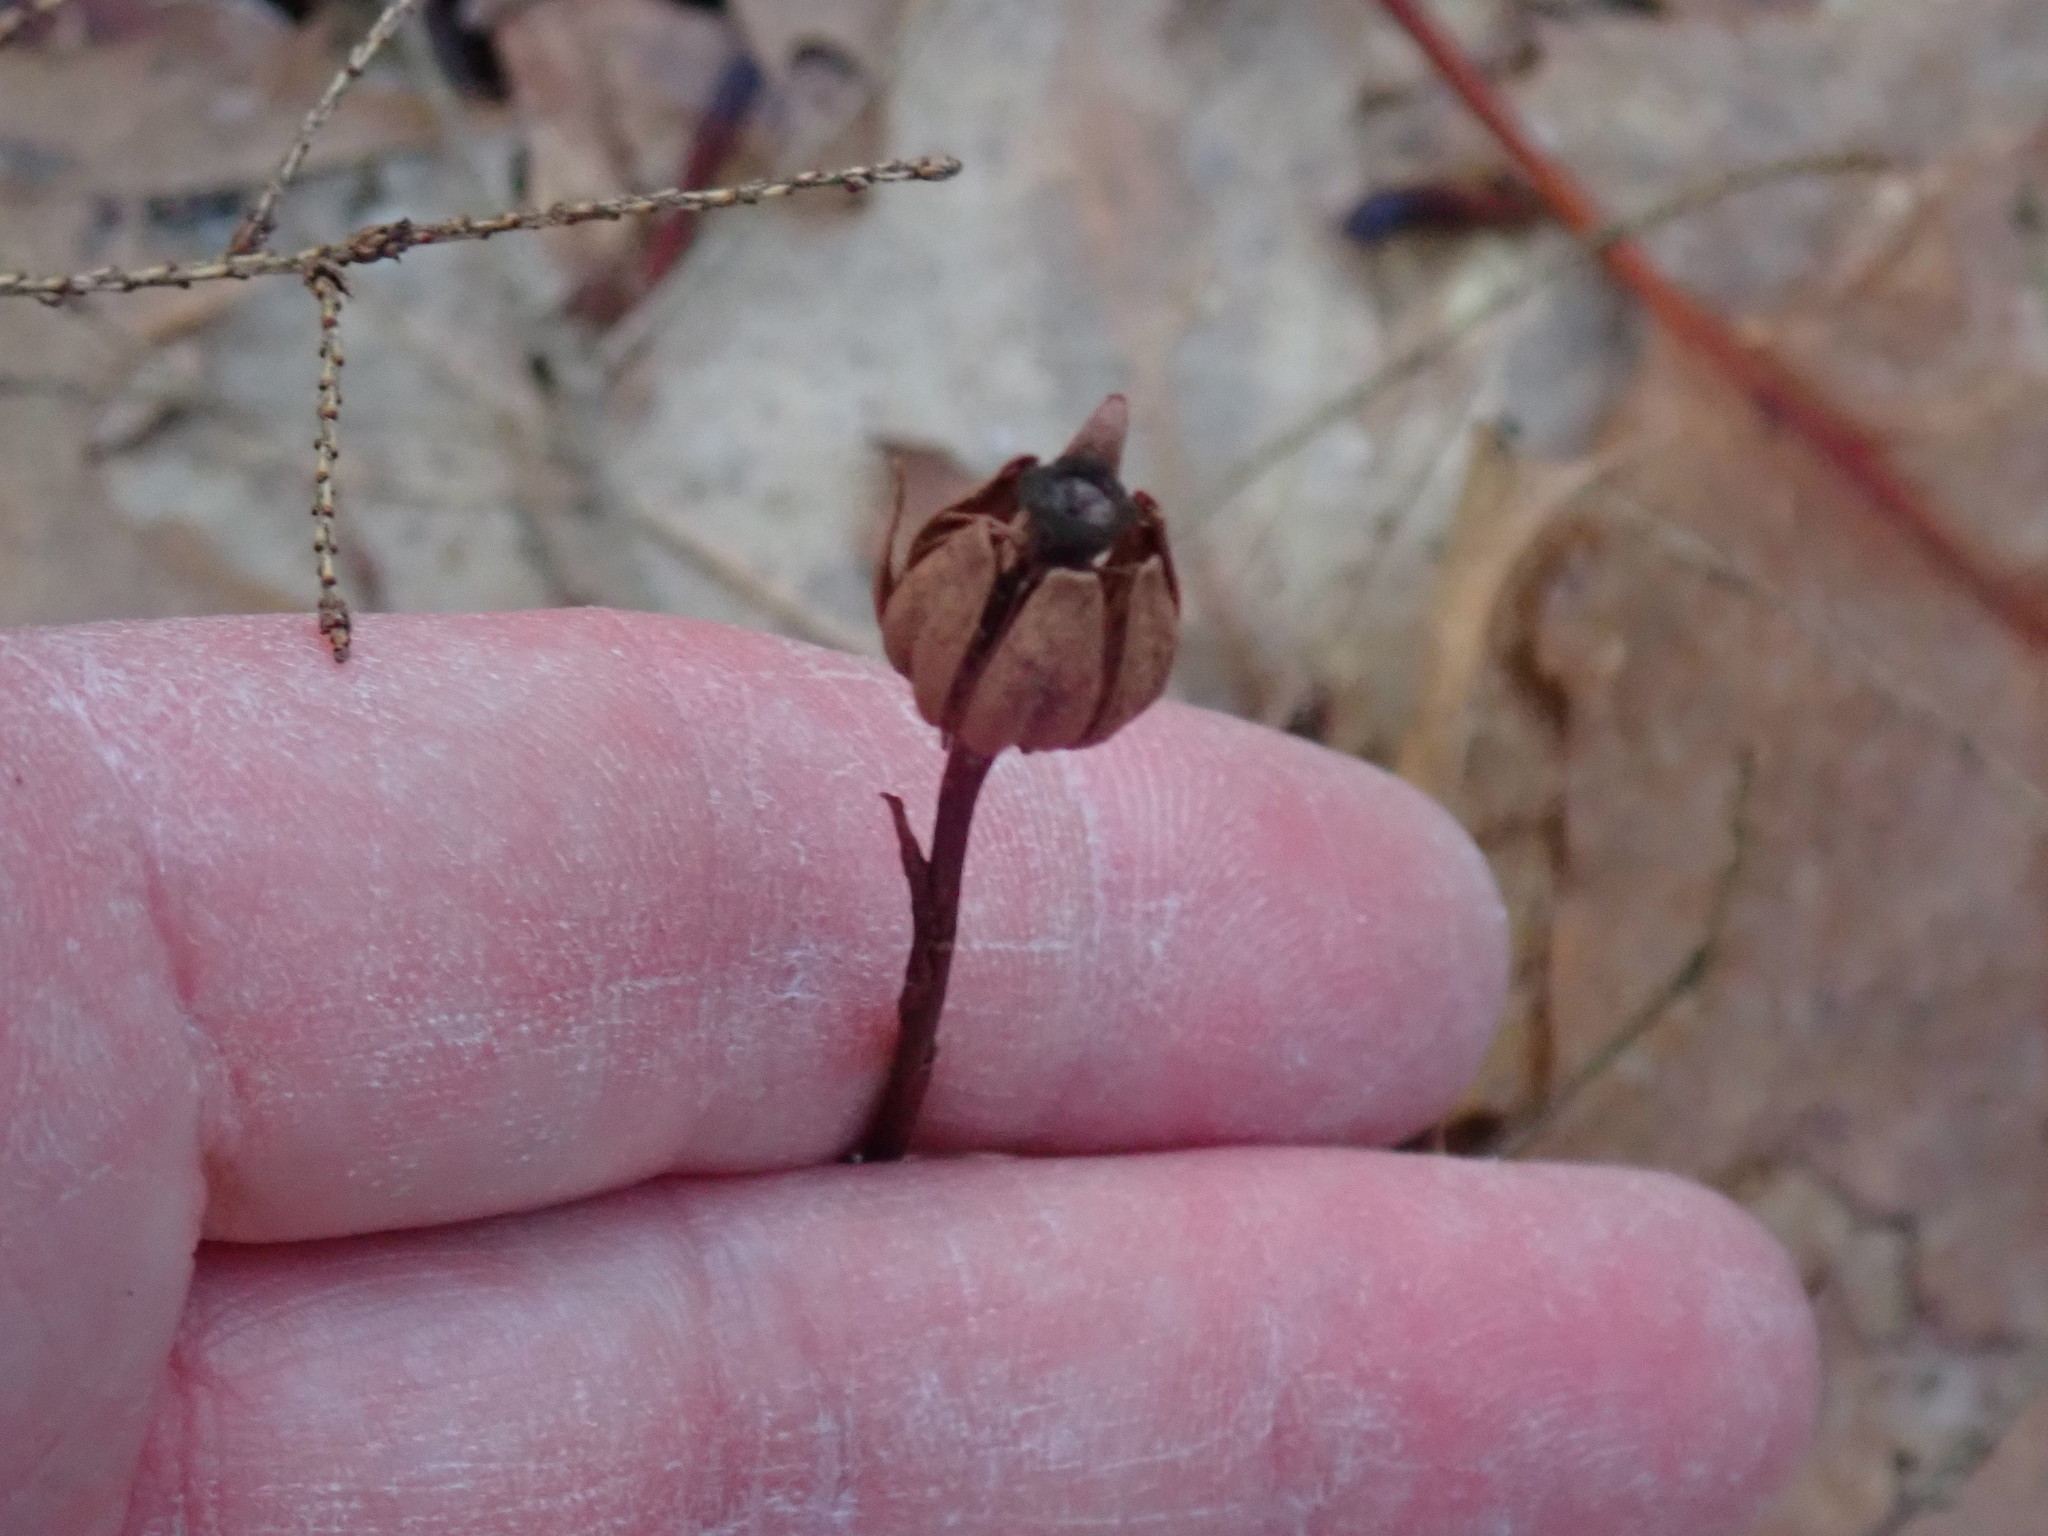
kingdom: Plantae
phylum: Tracheophyta
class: Magnoliopsida
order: Ericales
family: Ericaceae
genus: Monotropa
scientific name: Monotropa uniflora
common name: Convulsion root
